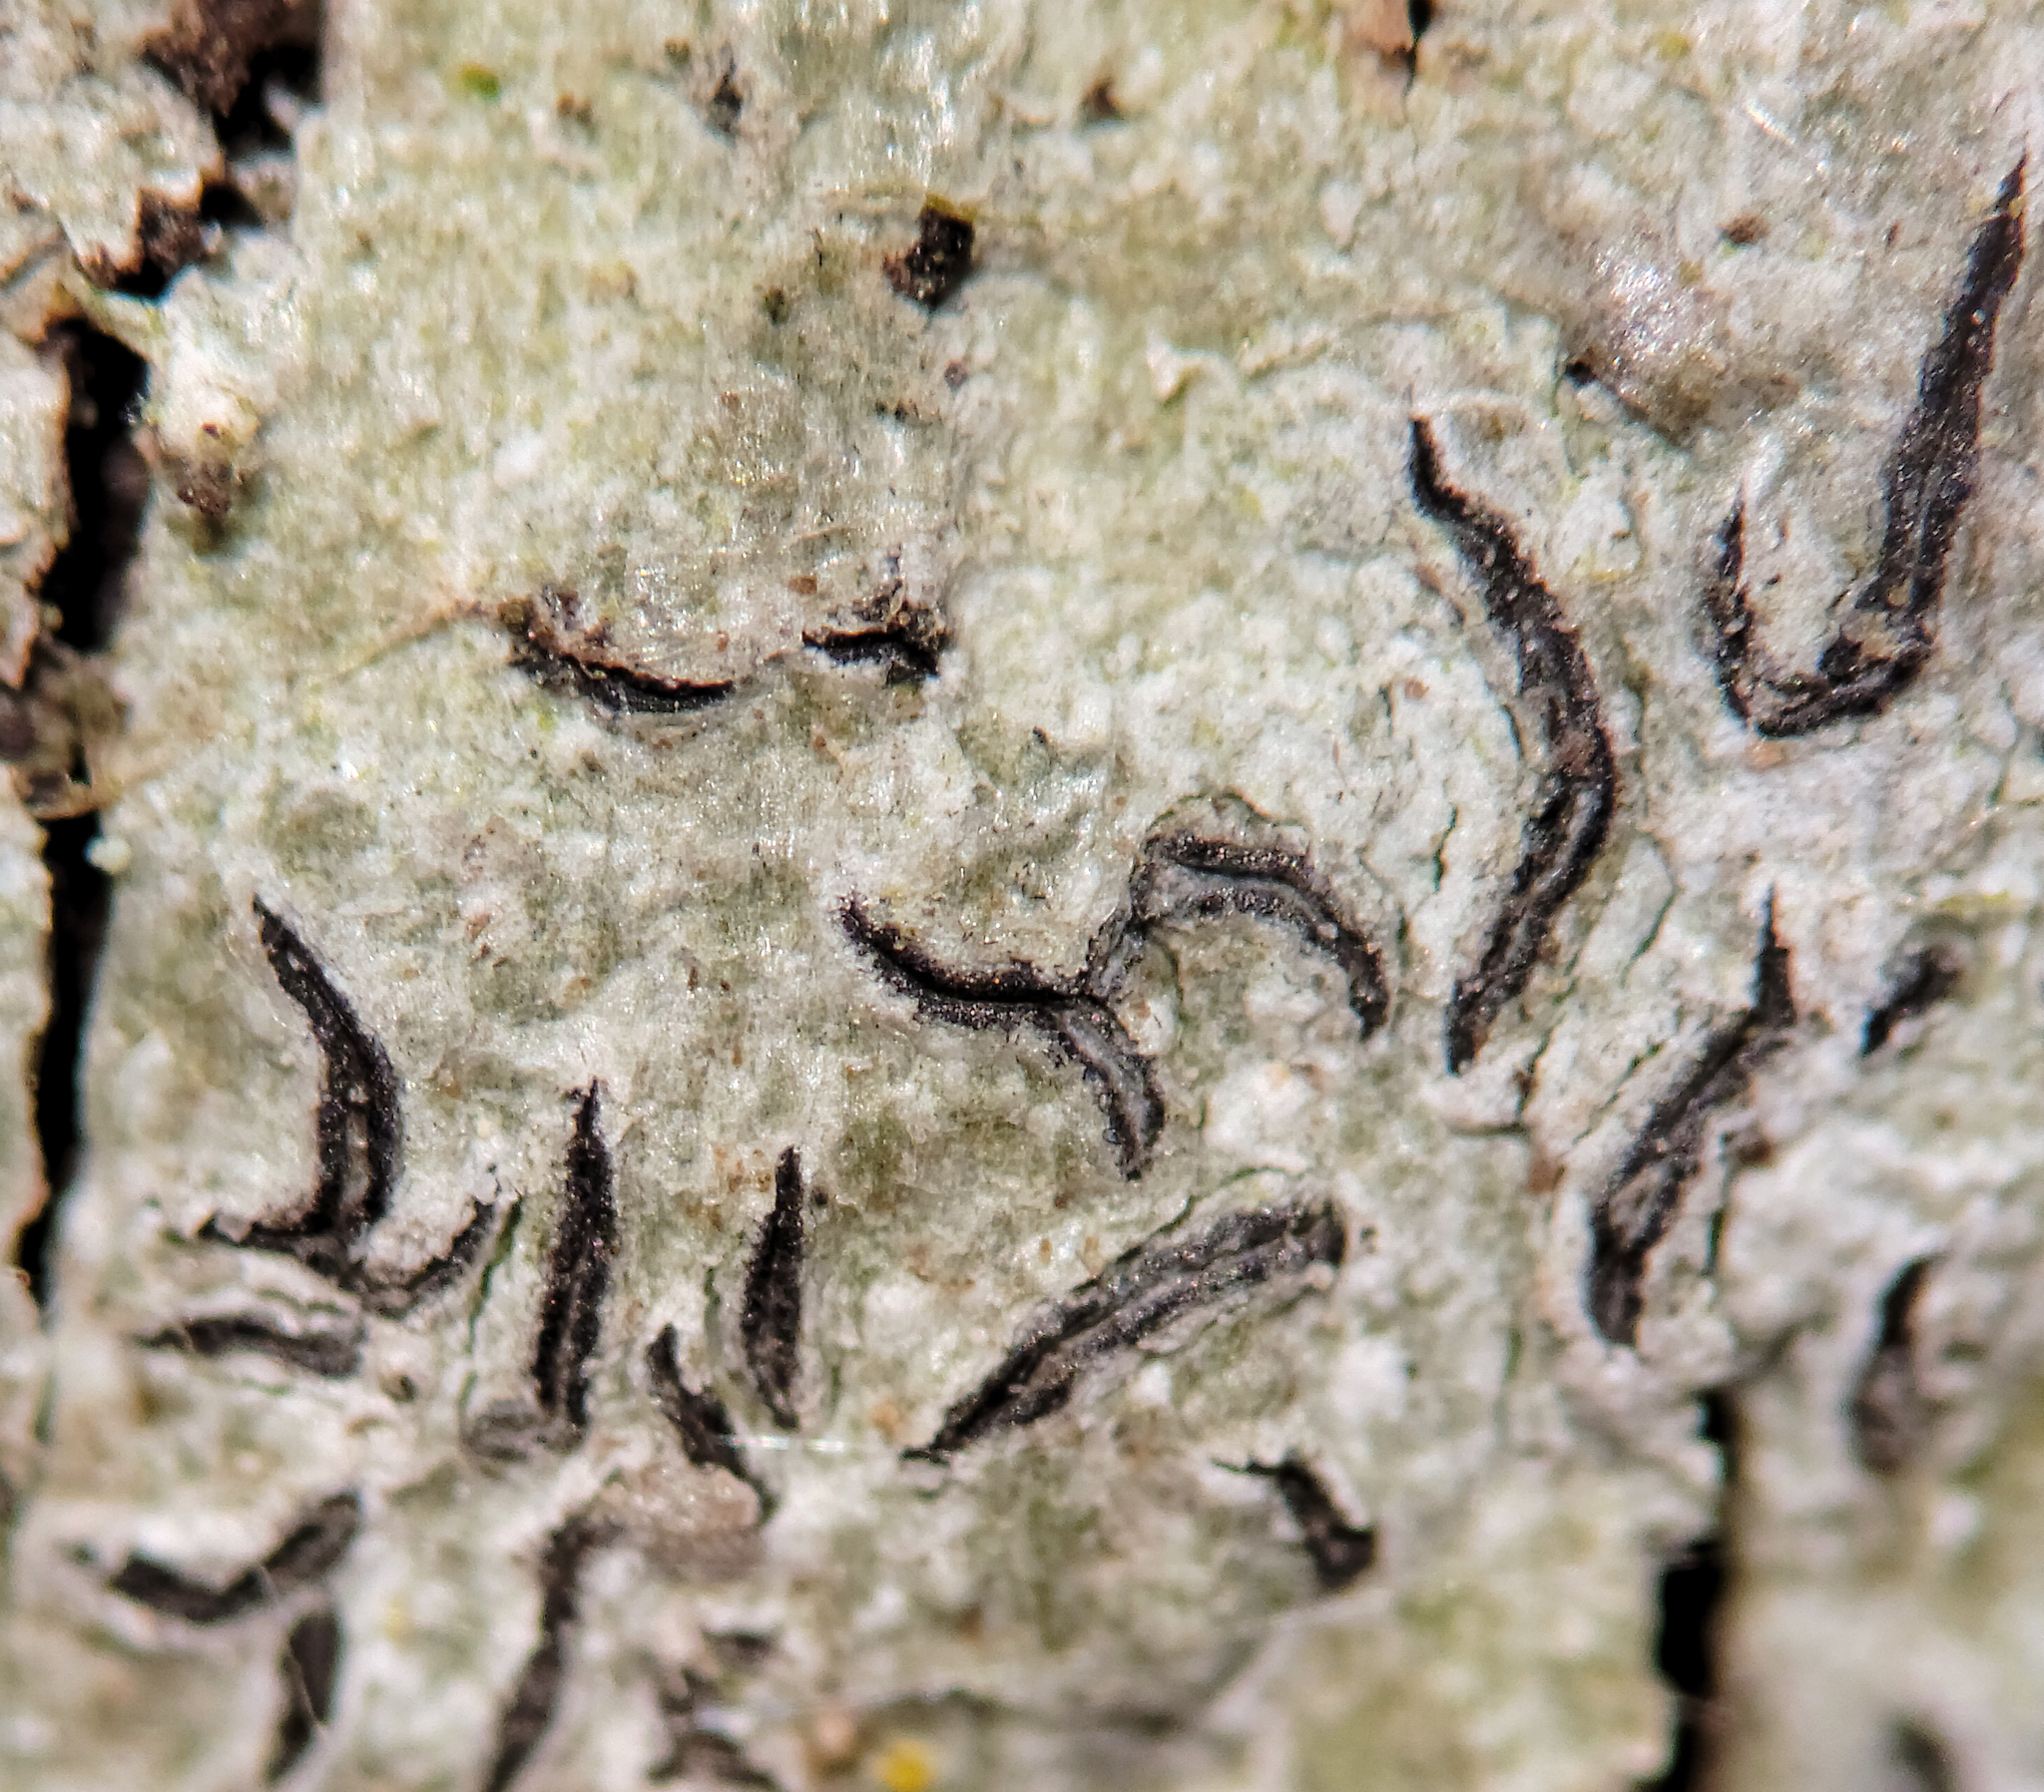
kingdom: Fungi
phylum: Ascomycota
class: Lecanoromycetes
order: Ostropales
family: Graphidaceae
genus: Graphis
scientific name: Graphis scripta
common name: Script lichen
